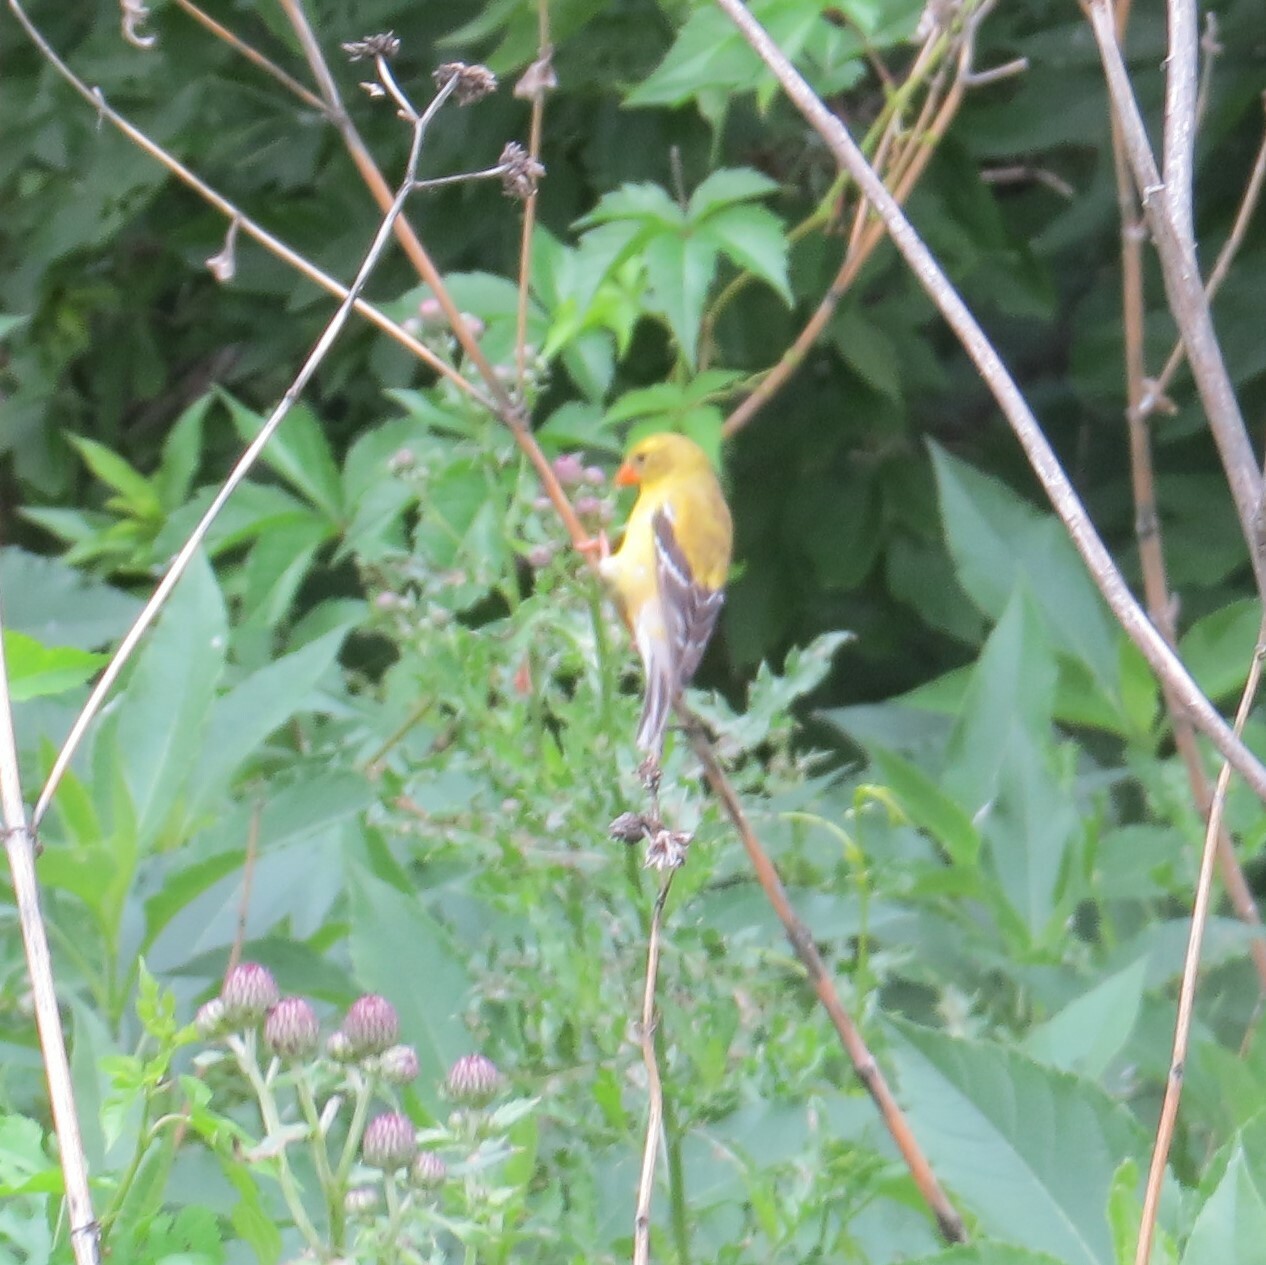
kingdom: Animalia
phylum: Chordata
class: Aves
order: Passeriformes
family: Fringillidae
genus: Spinus
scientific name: Spinus tristis
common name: American goldfinch
